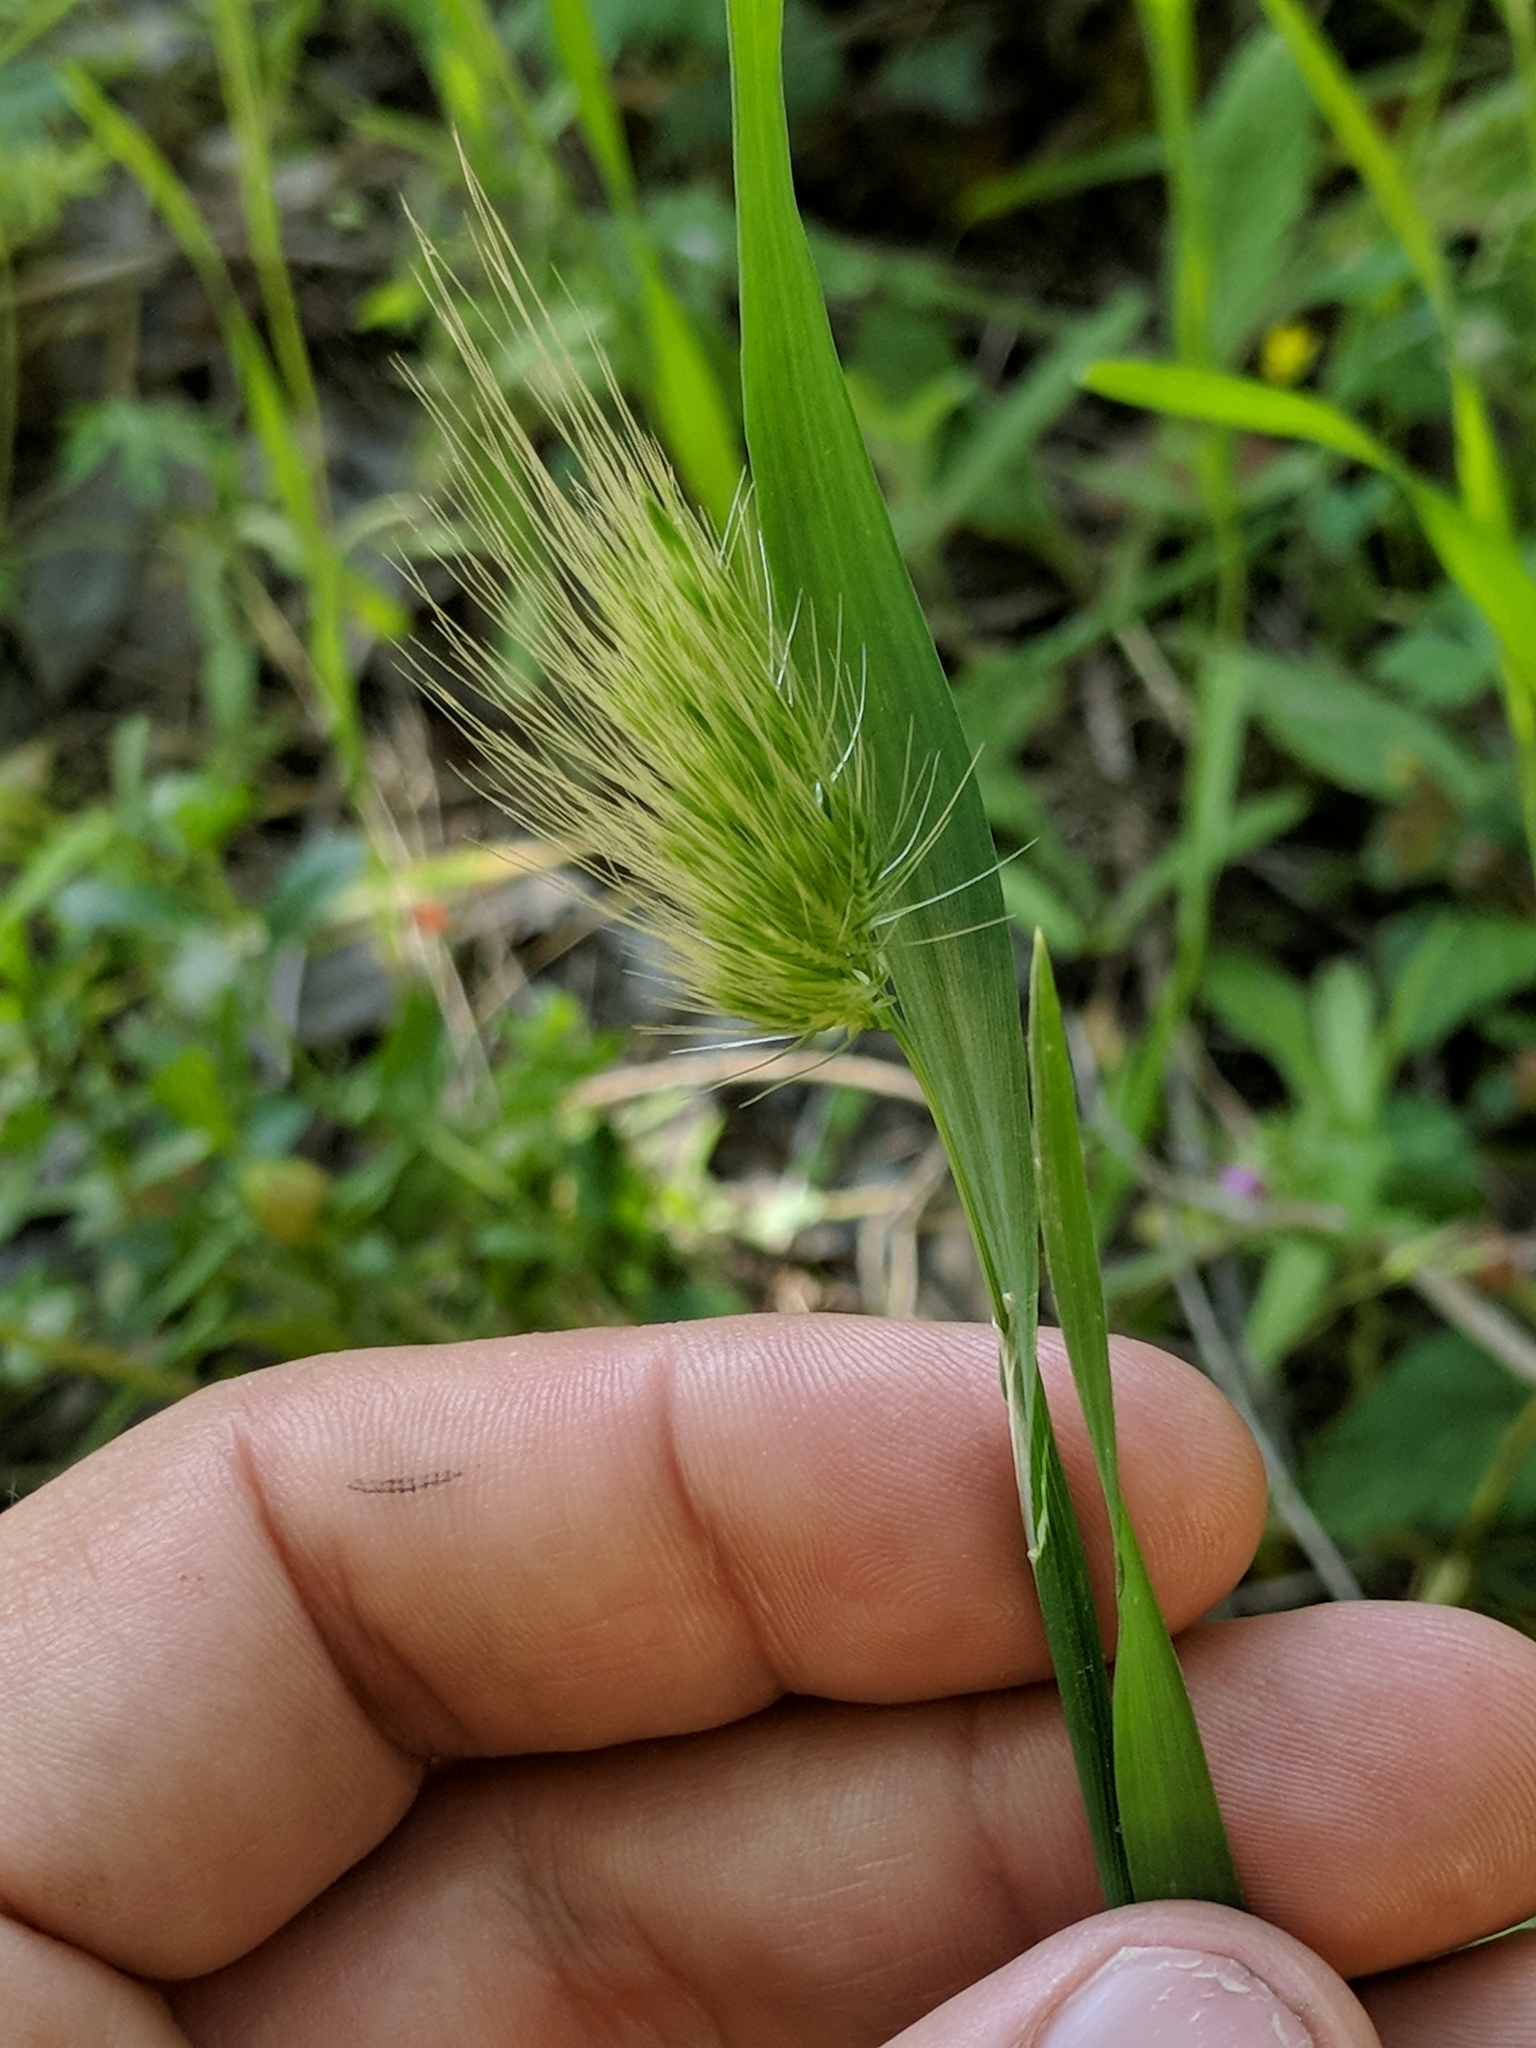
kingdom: Plantae
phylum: Tracheophyta
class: Liliopsida
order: Poales
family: Poaceae
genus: Cynosurus
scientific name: Cynosurus echinatus
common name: Rough dog's-tail
